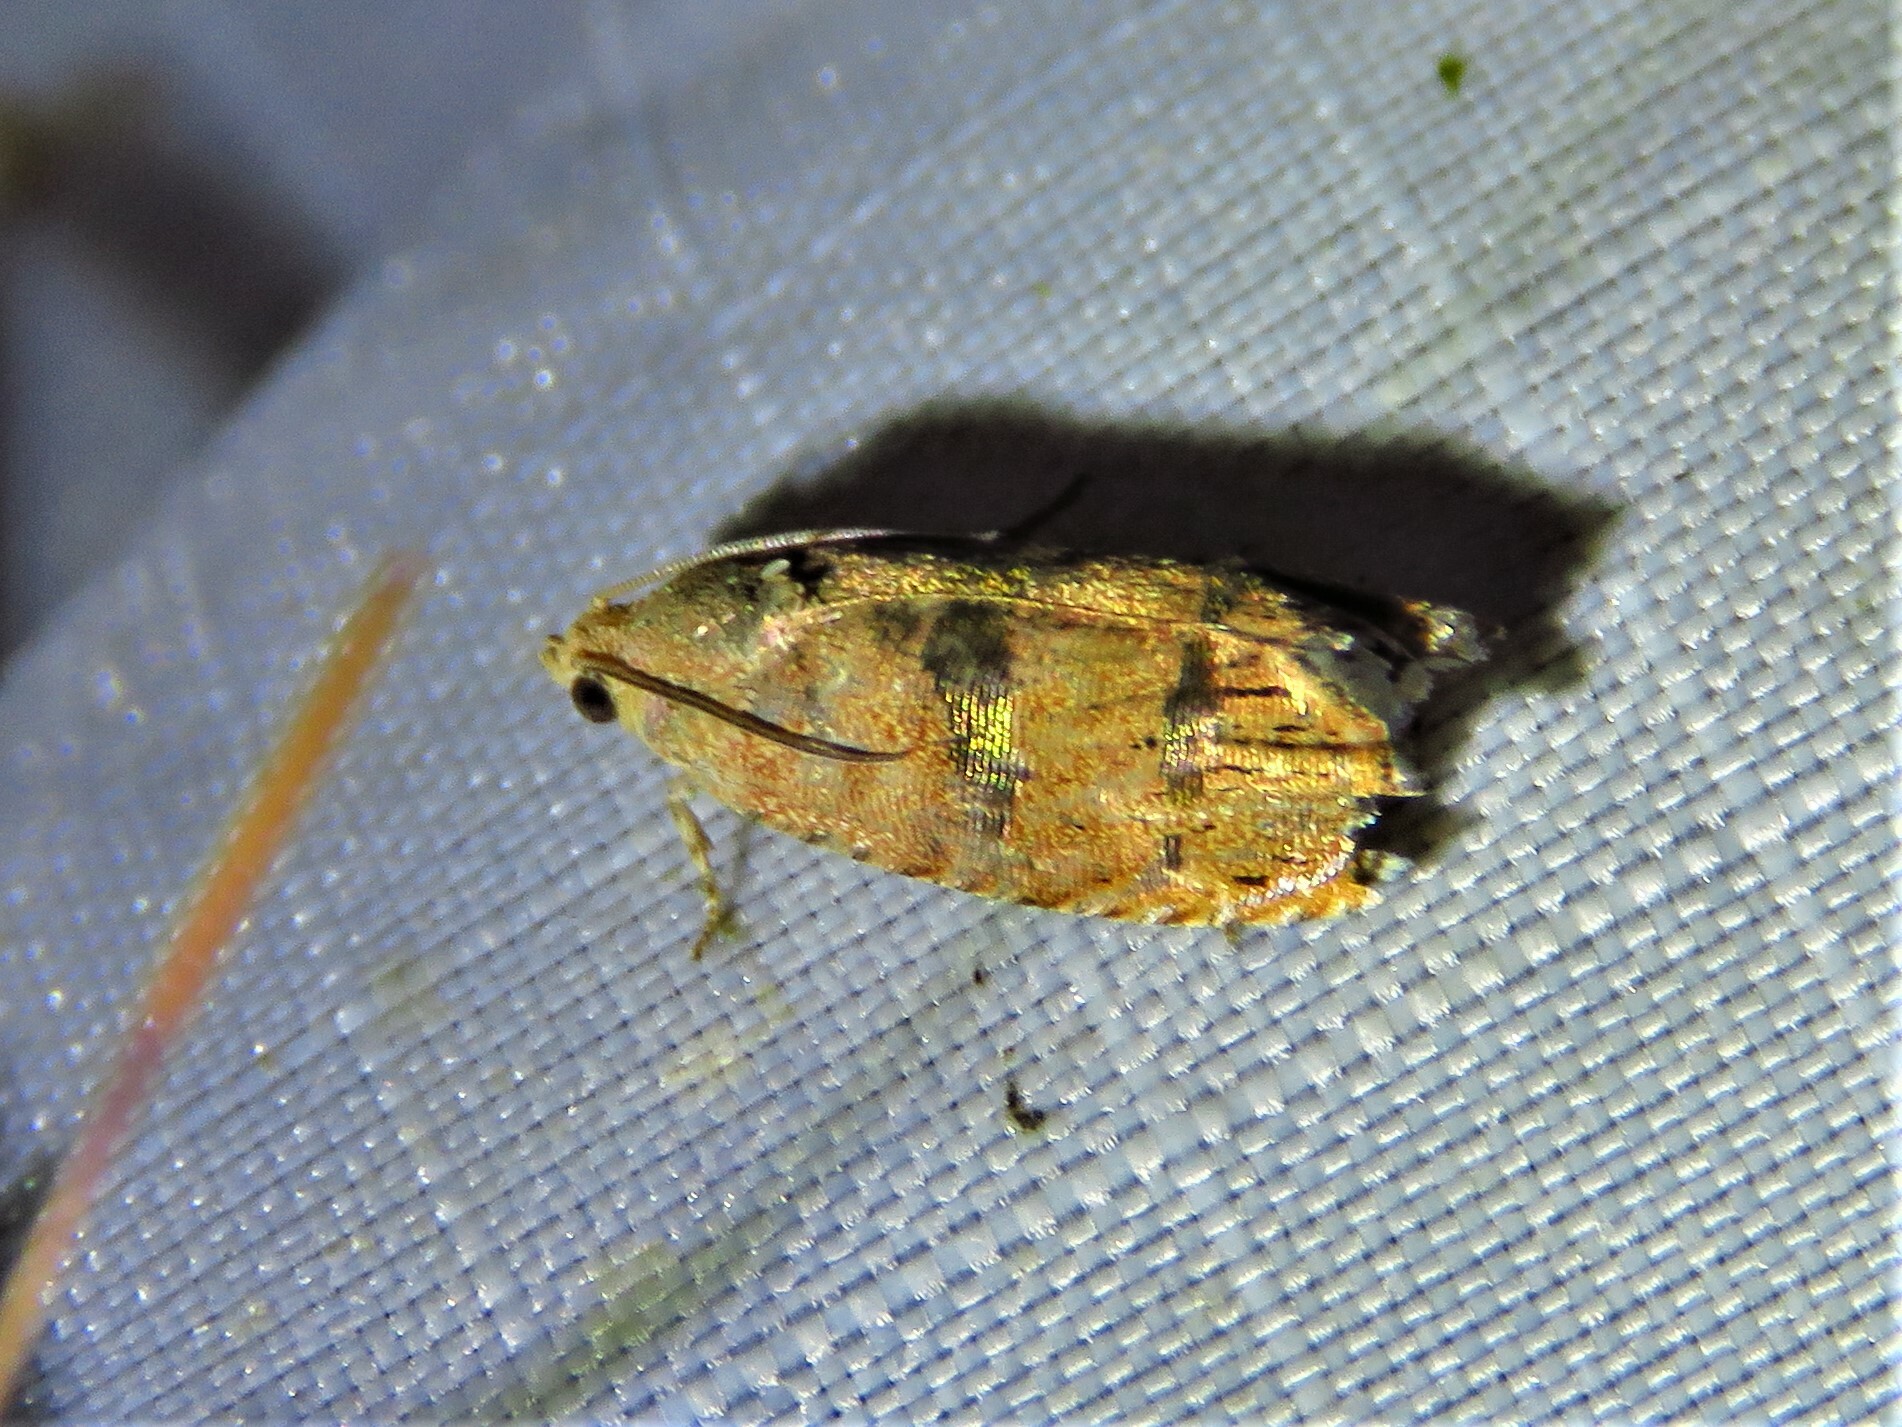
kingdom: Animalia
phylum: Arthropoda
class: Insecta
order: Lepidoptera
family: Tortricidae
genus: Cydia
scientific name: Cydia latiferreana
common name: Filbertworm moth
